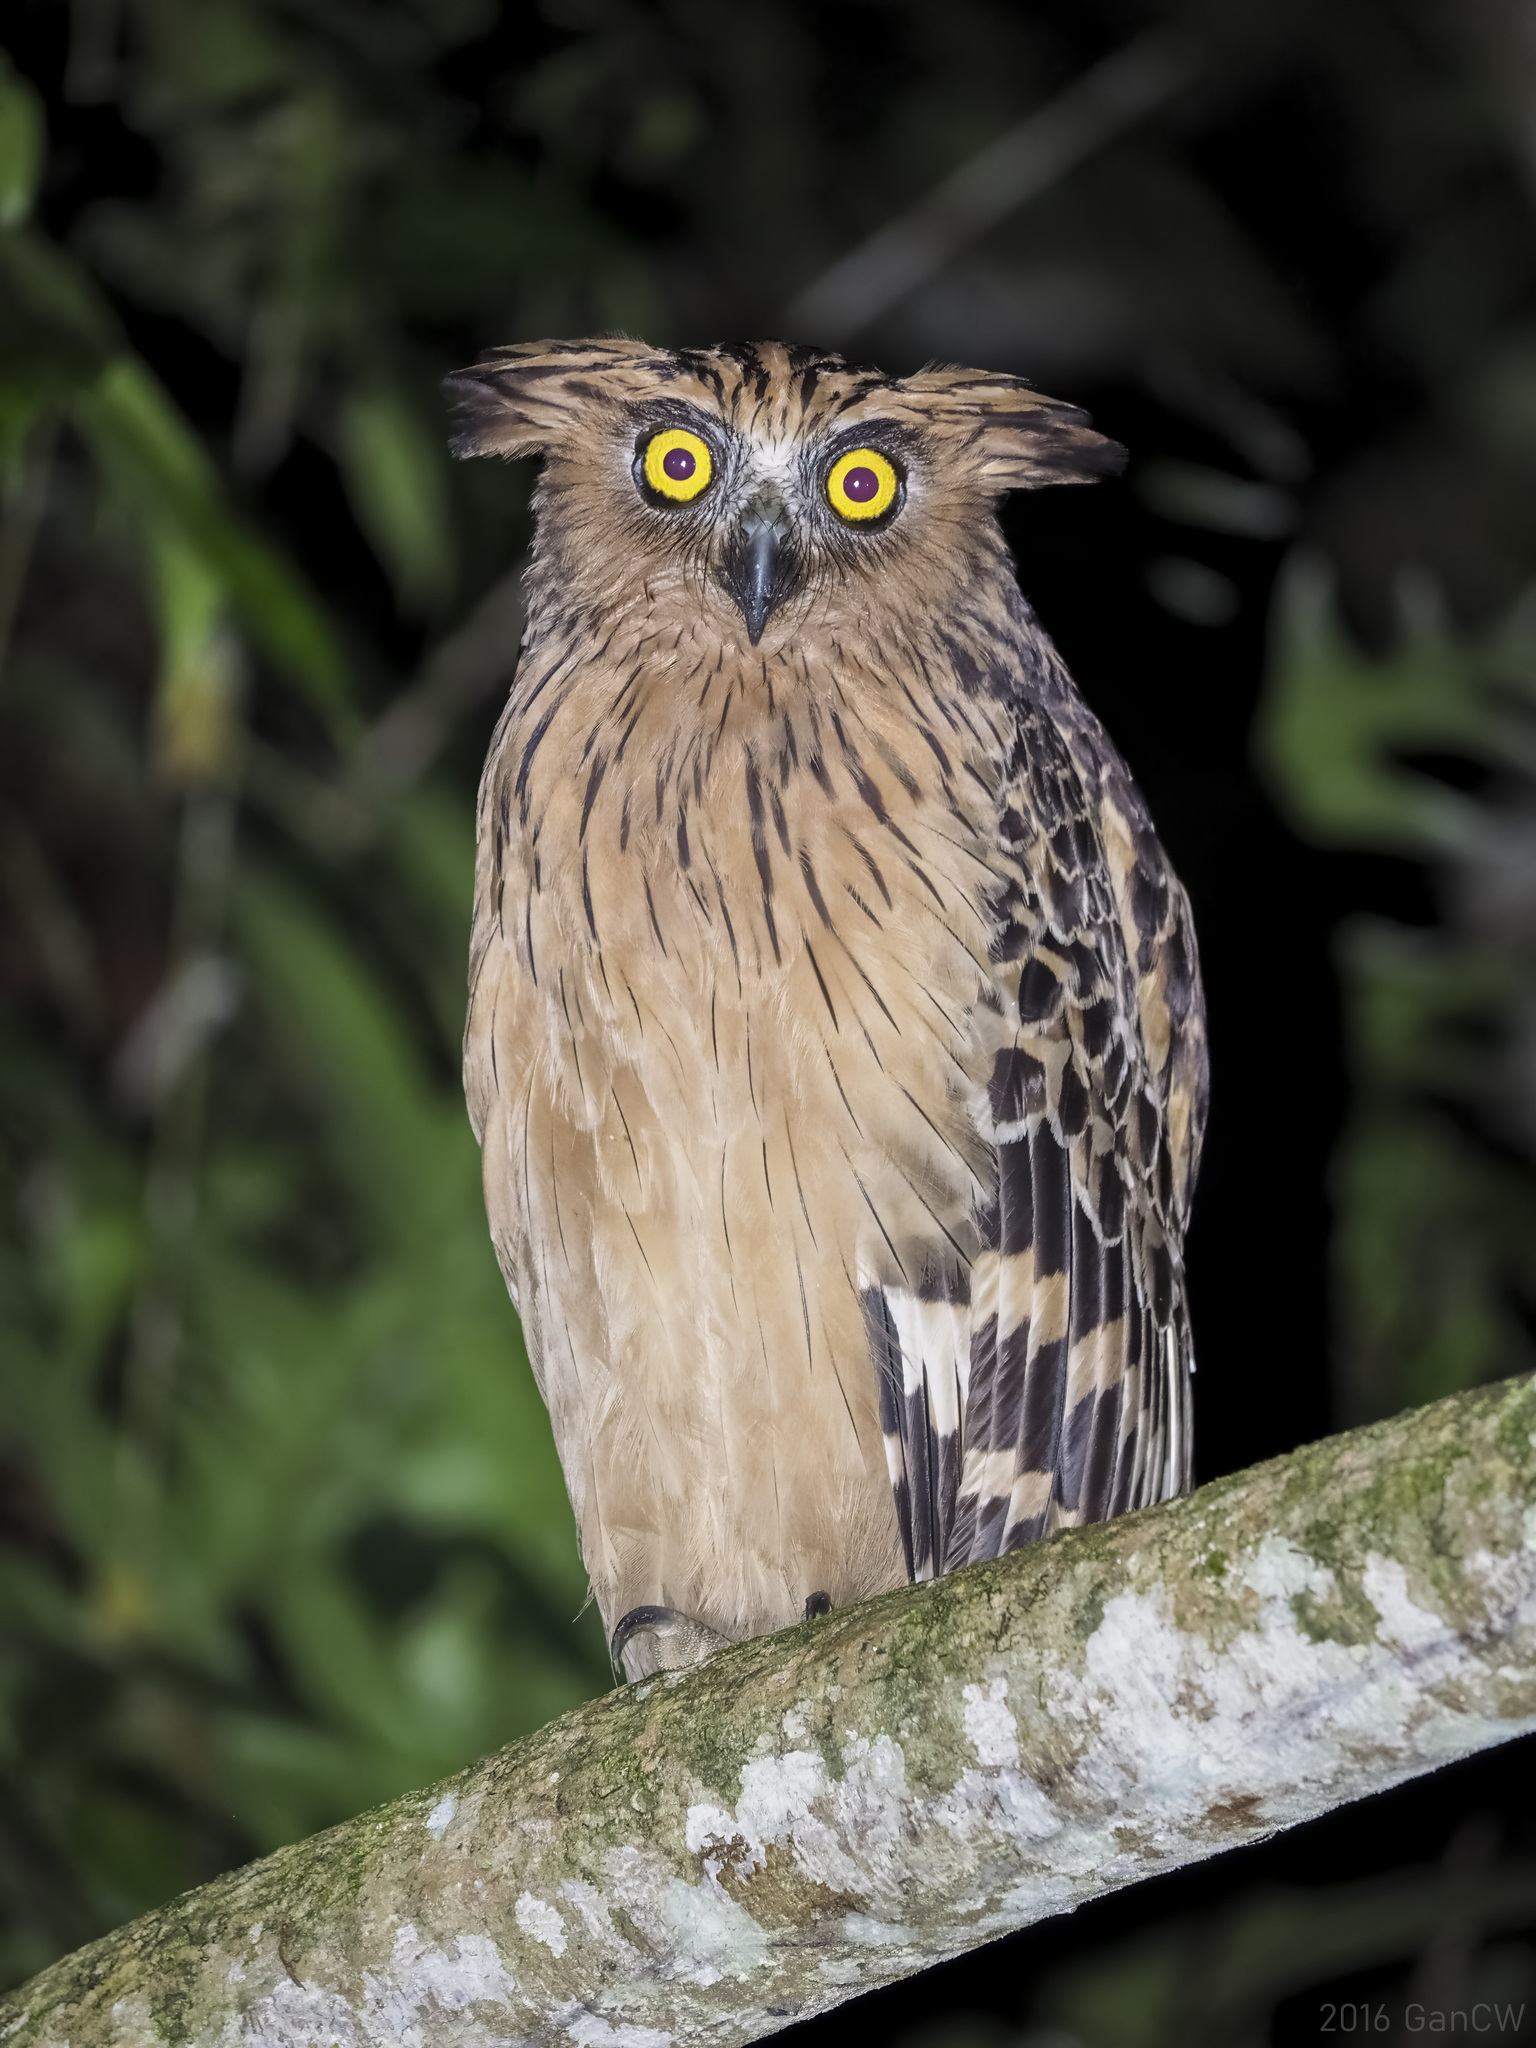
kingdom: Animalia
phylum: Chordata
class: Aves
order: Strigiformes
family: Strigidae
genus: Ketupa
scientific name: Ketupa ketupu
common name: Buffy fish-owl
